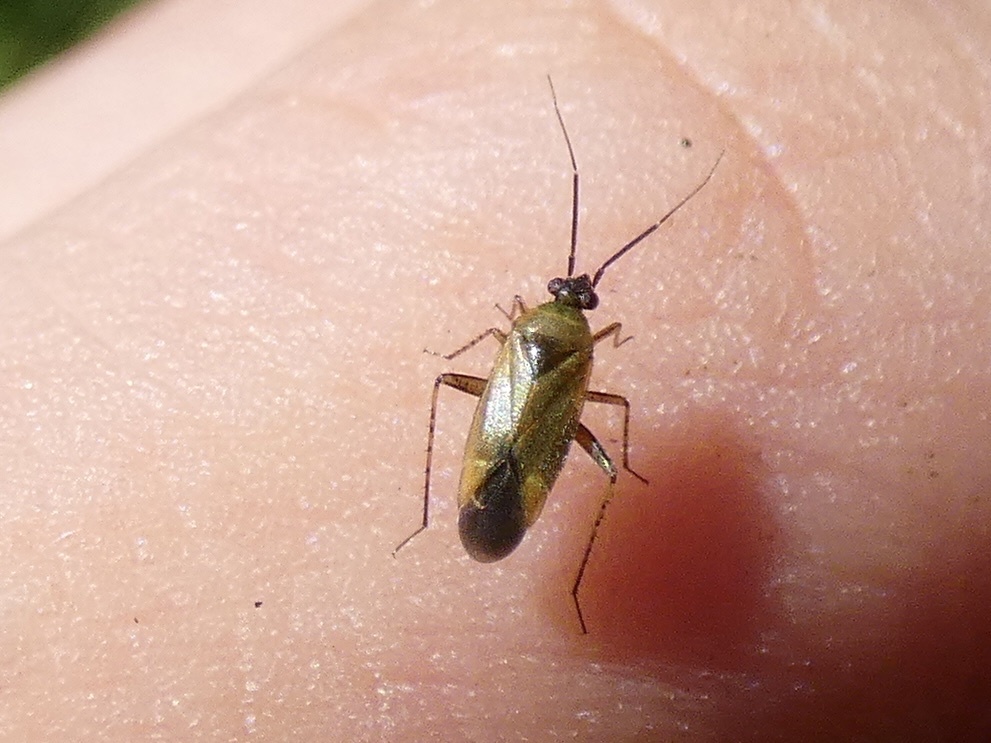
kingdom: Animalia
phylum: Arthropoda
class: Insecta
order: Hemiptera
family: Miridae
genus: Plagiognathus
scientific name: Plagiognathus arbustorum
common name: Plant bug
